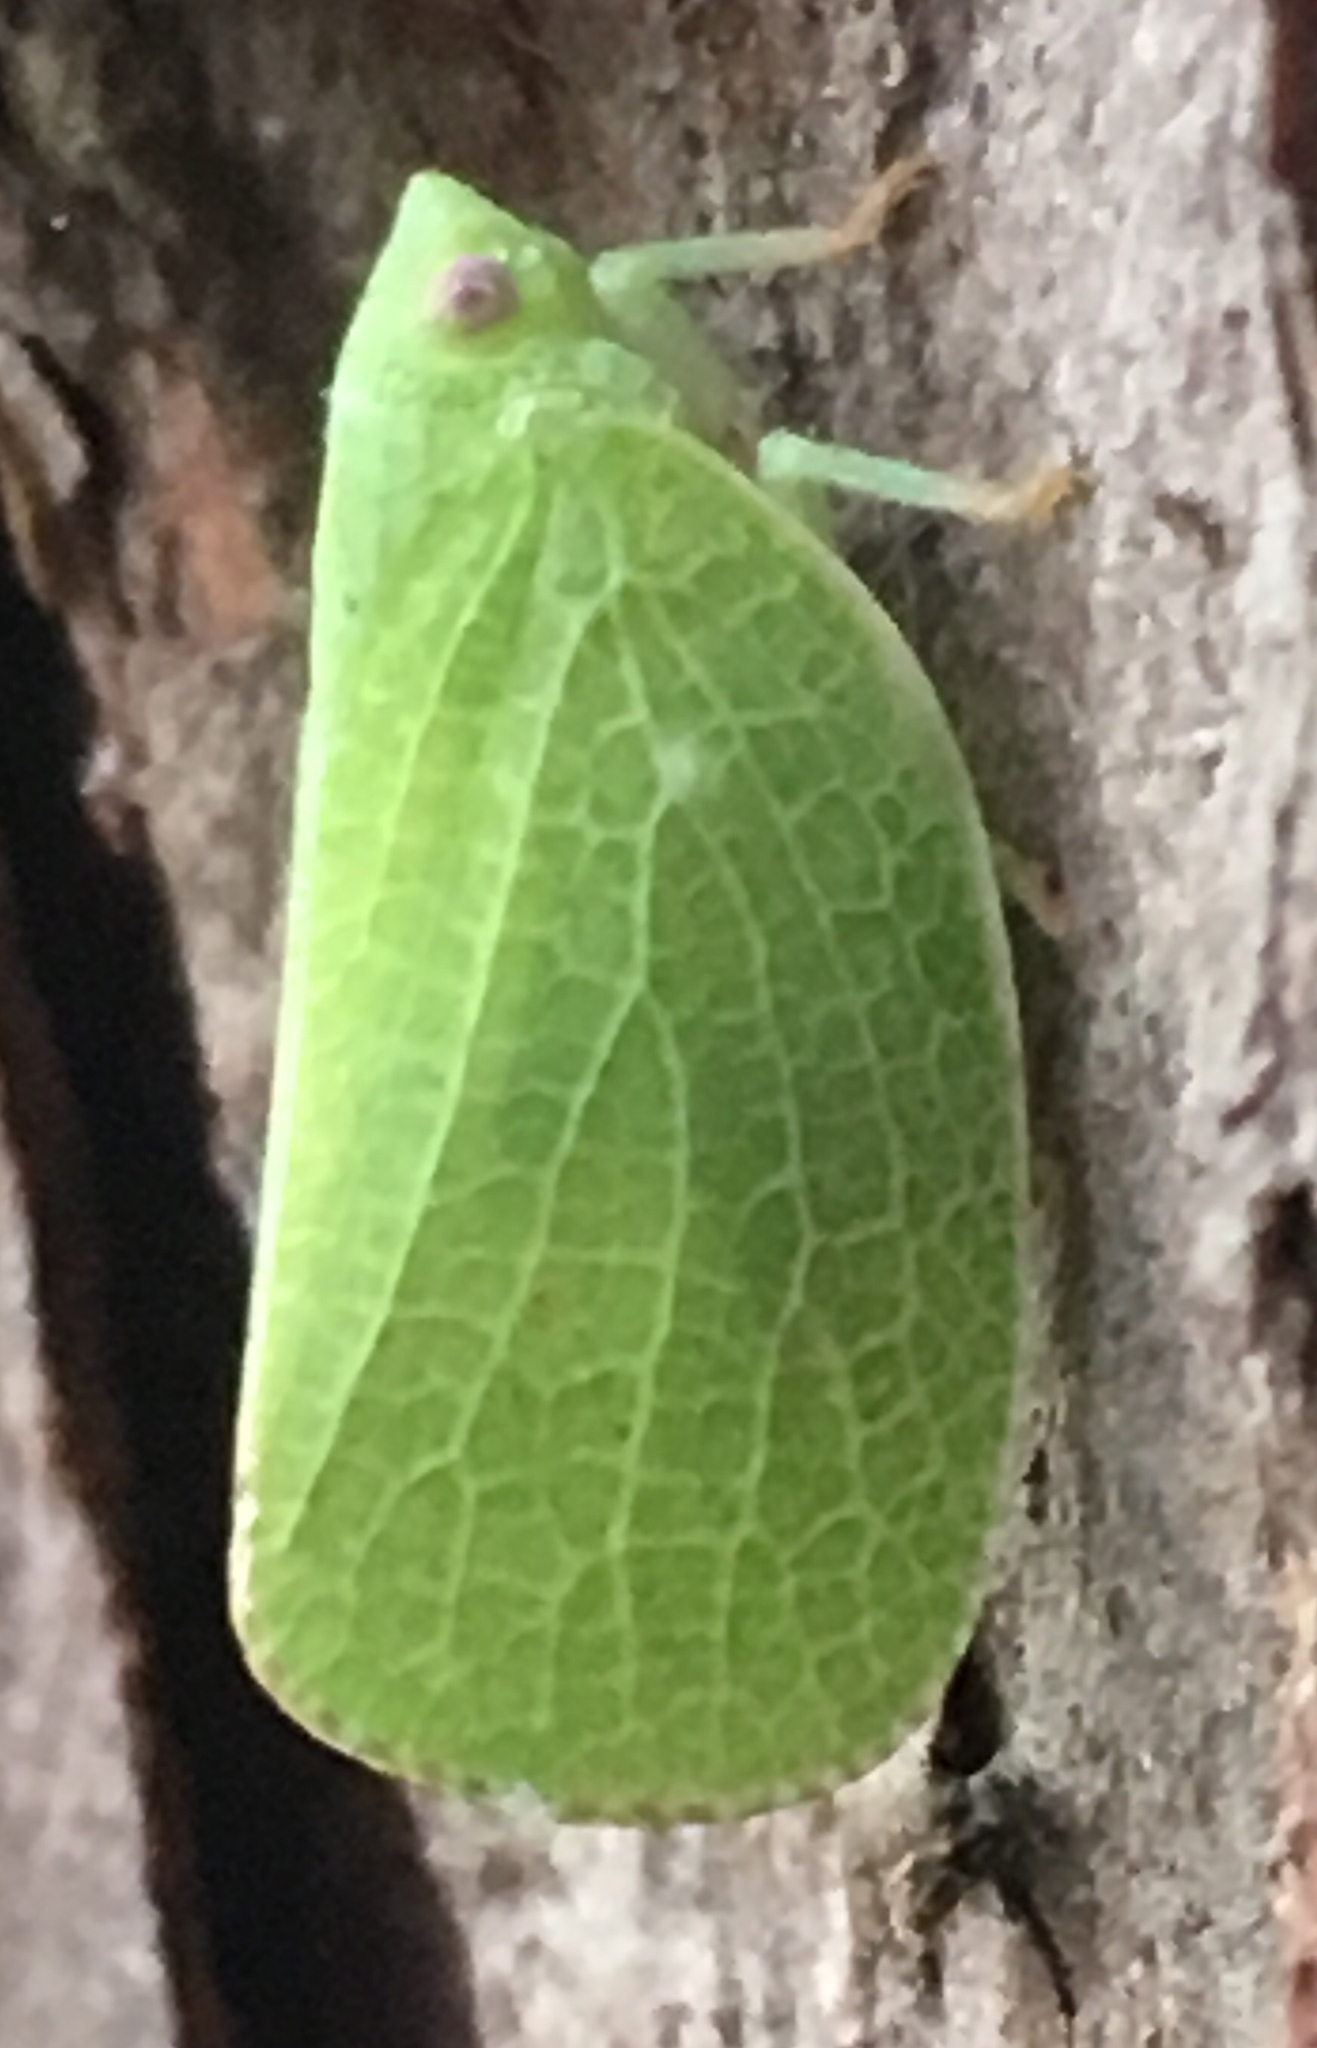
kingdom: Animalia
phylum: Arthropoda
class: Insecta
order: Hemiptera
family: Acanaloniidae
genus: Acanalonia
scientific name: Acanalonia conica
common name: Green cone-headed planthopper
